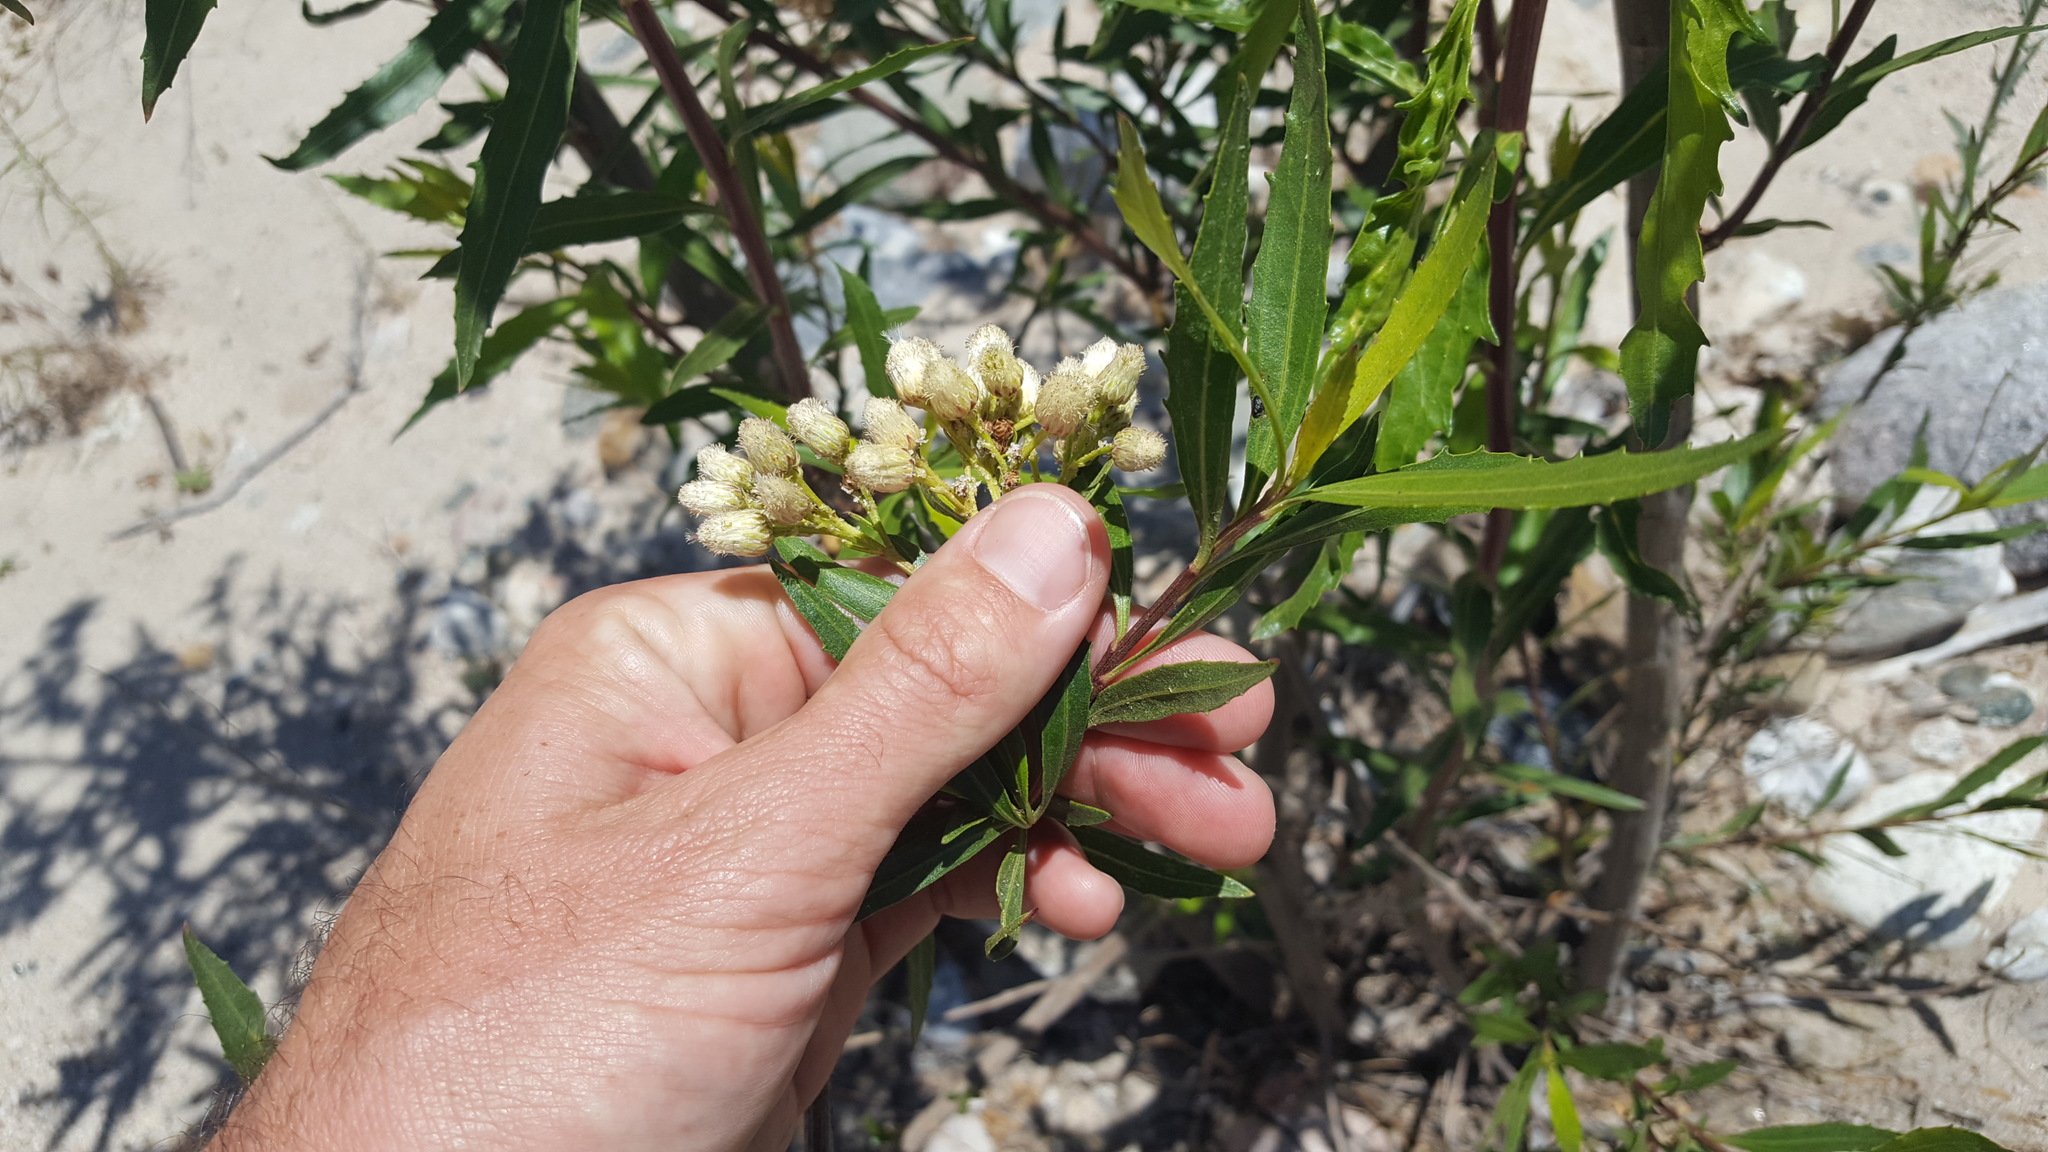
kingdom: Plantae
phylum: Tracheophyta
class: Magnoliopsida
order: Asterales
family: Asteraceae
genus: Baccharis
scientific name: Baccharis salicifolia
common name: Sticky baccharis
